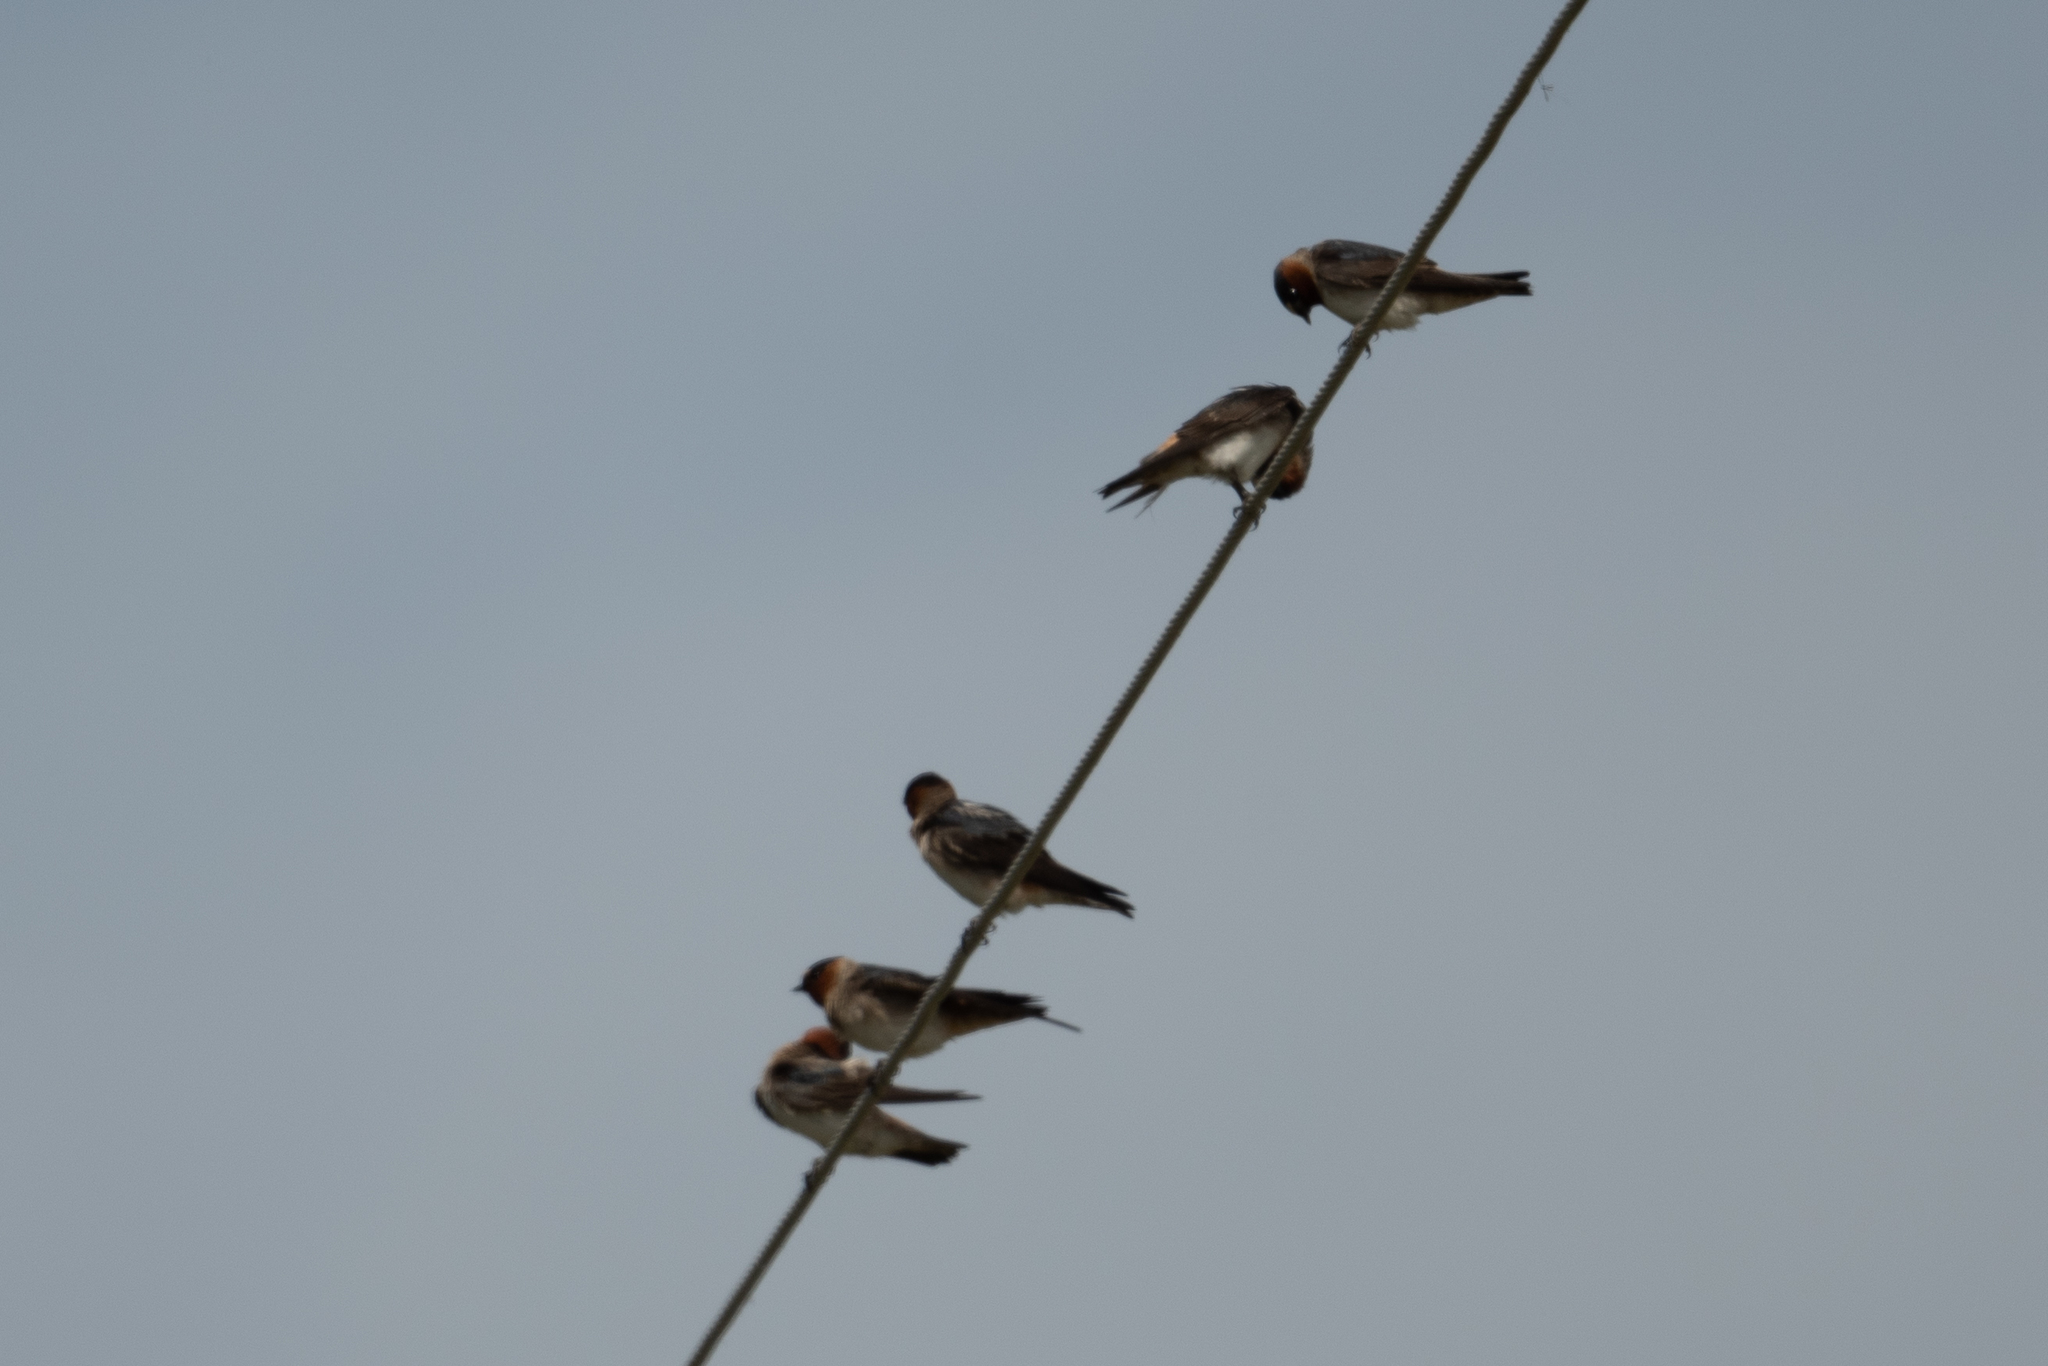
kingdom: Animalia
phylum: Chordata
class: Aves
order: Passeriformes
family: Hirundinidae
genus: Petrochelidon
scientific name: Petrochelidon pyrrhonota
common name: American cliff swallow
